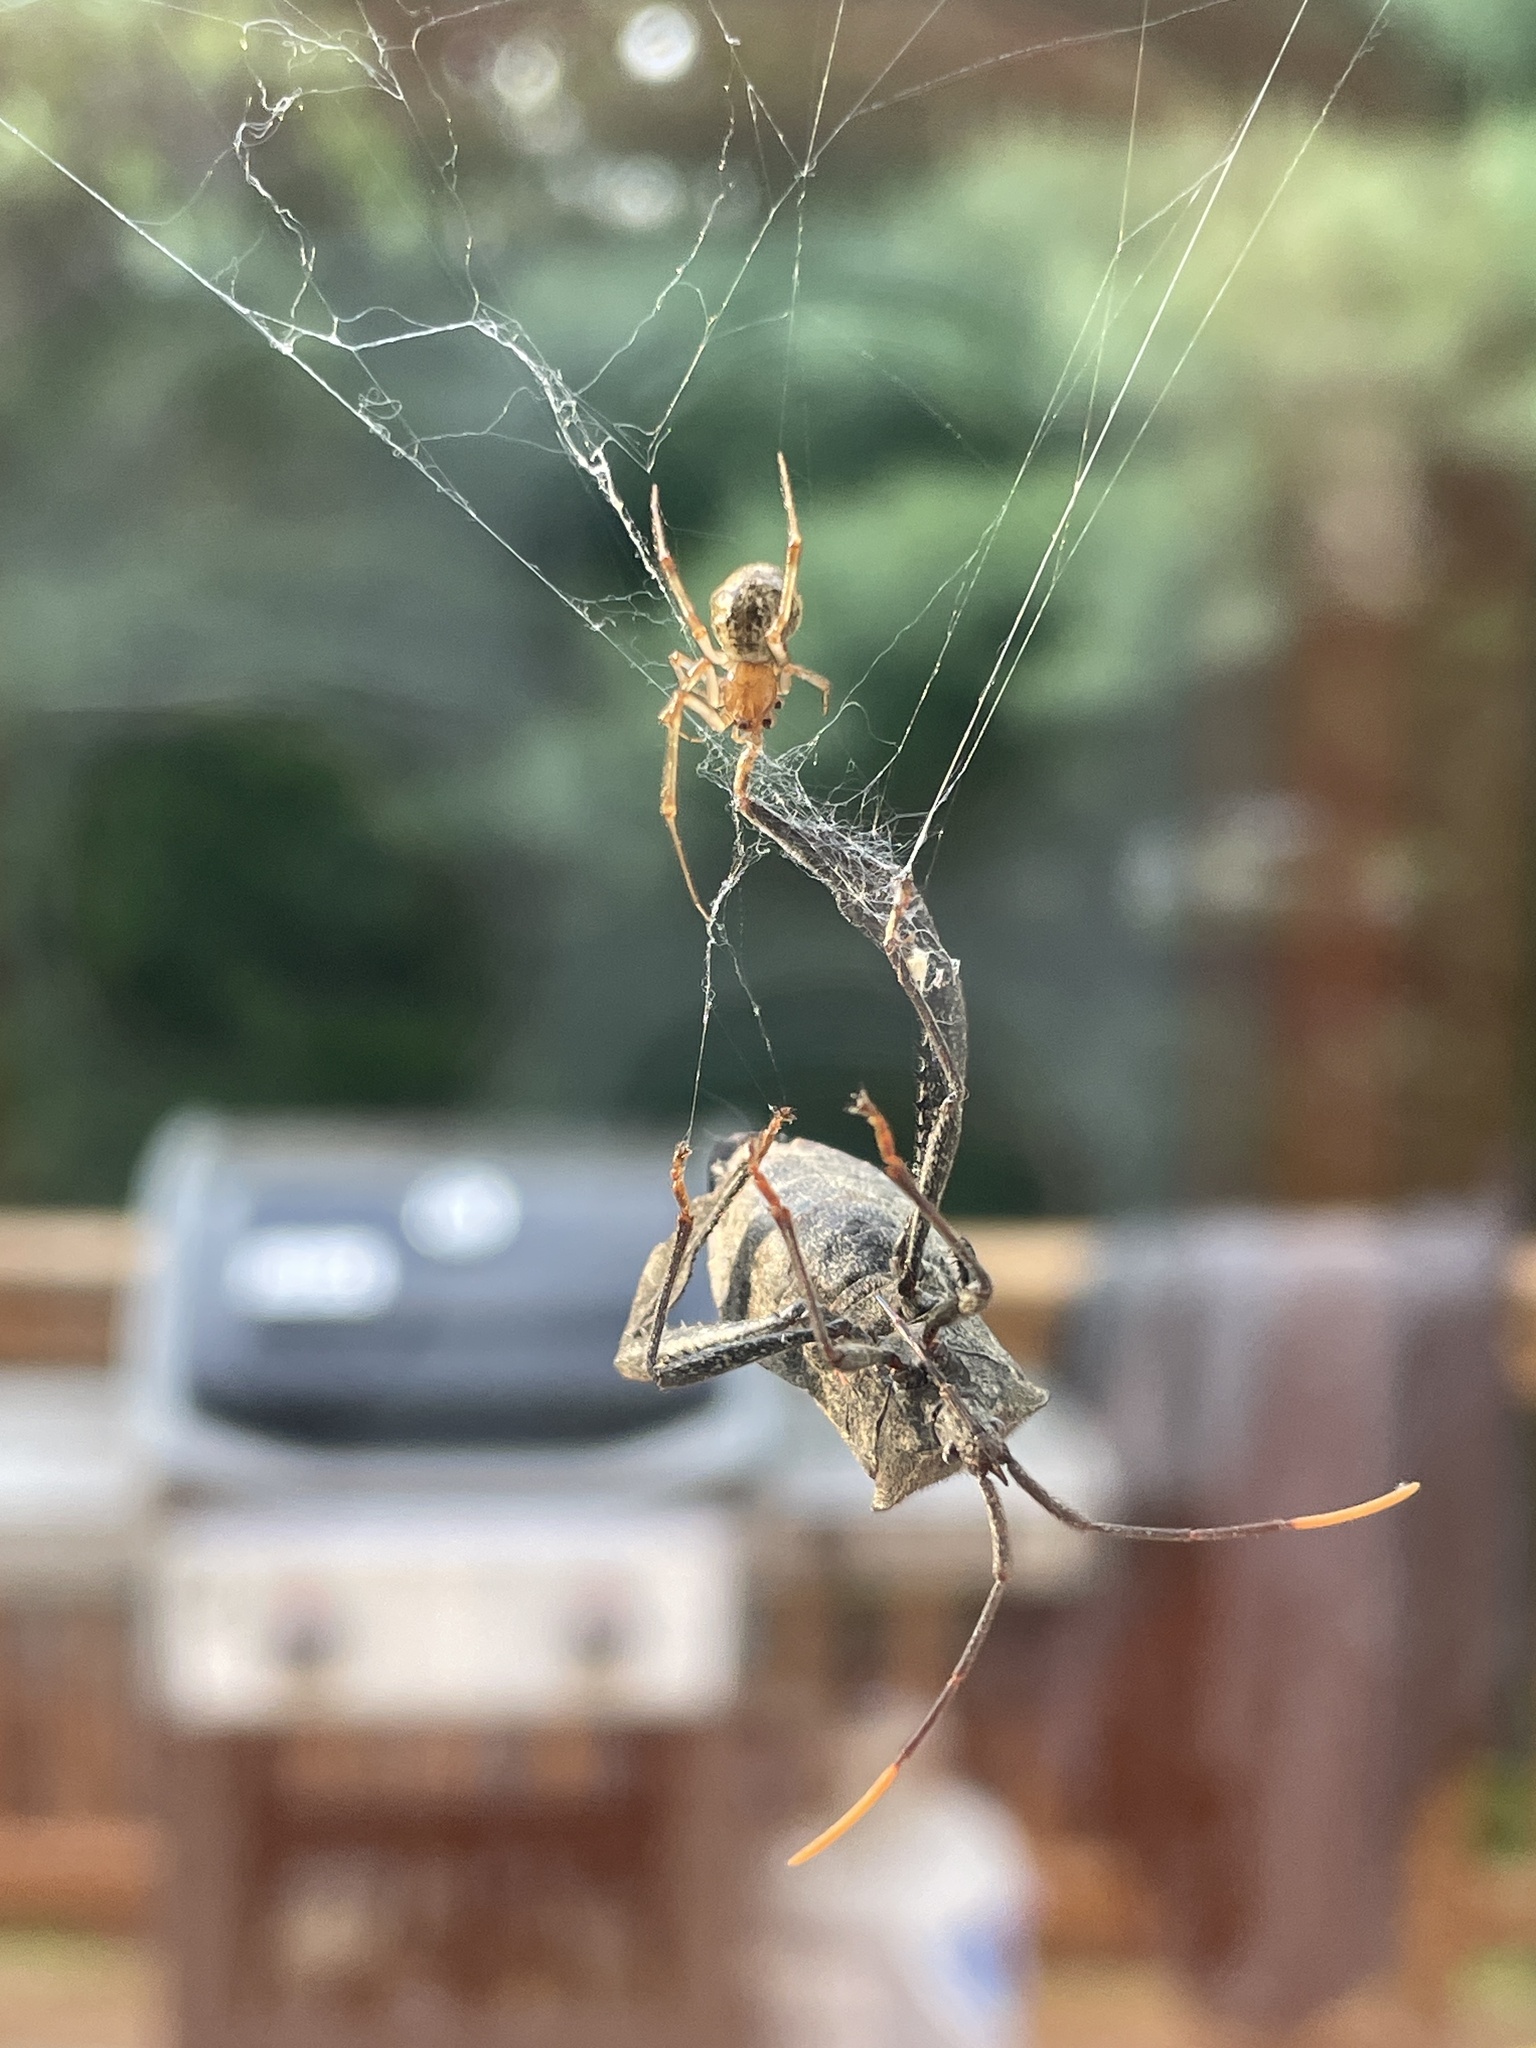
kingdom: Animalia
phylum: Arthropoda
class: Insecta
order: Hemiptera
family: Coreidae
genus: Acanthocephala
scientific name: Acanthocephala terminalis
